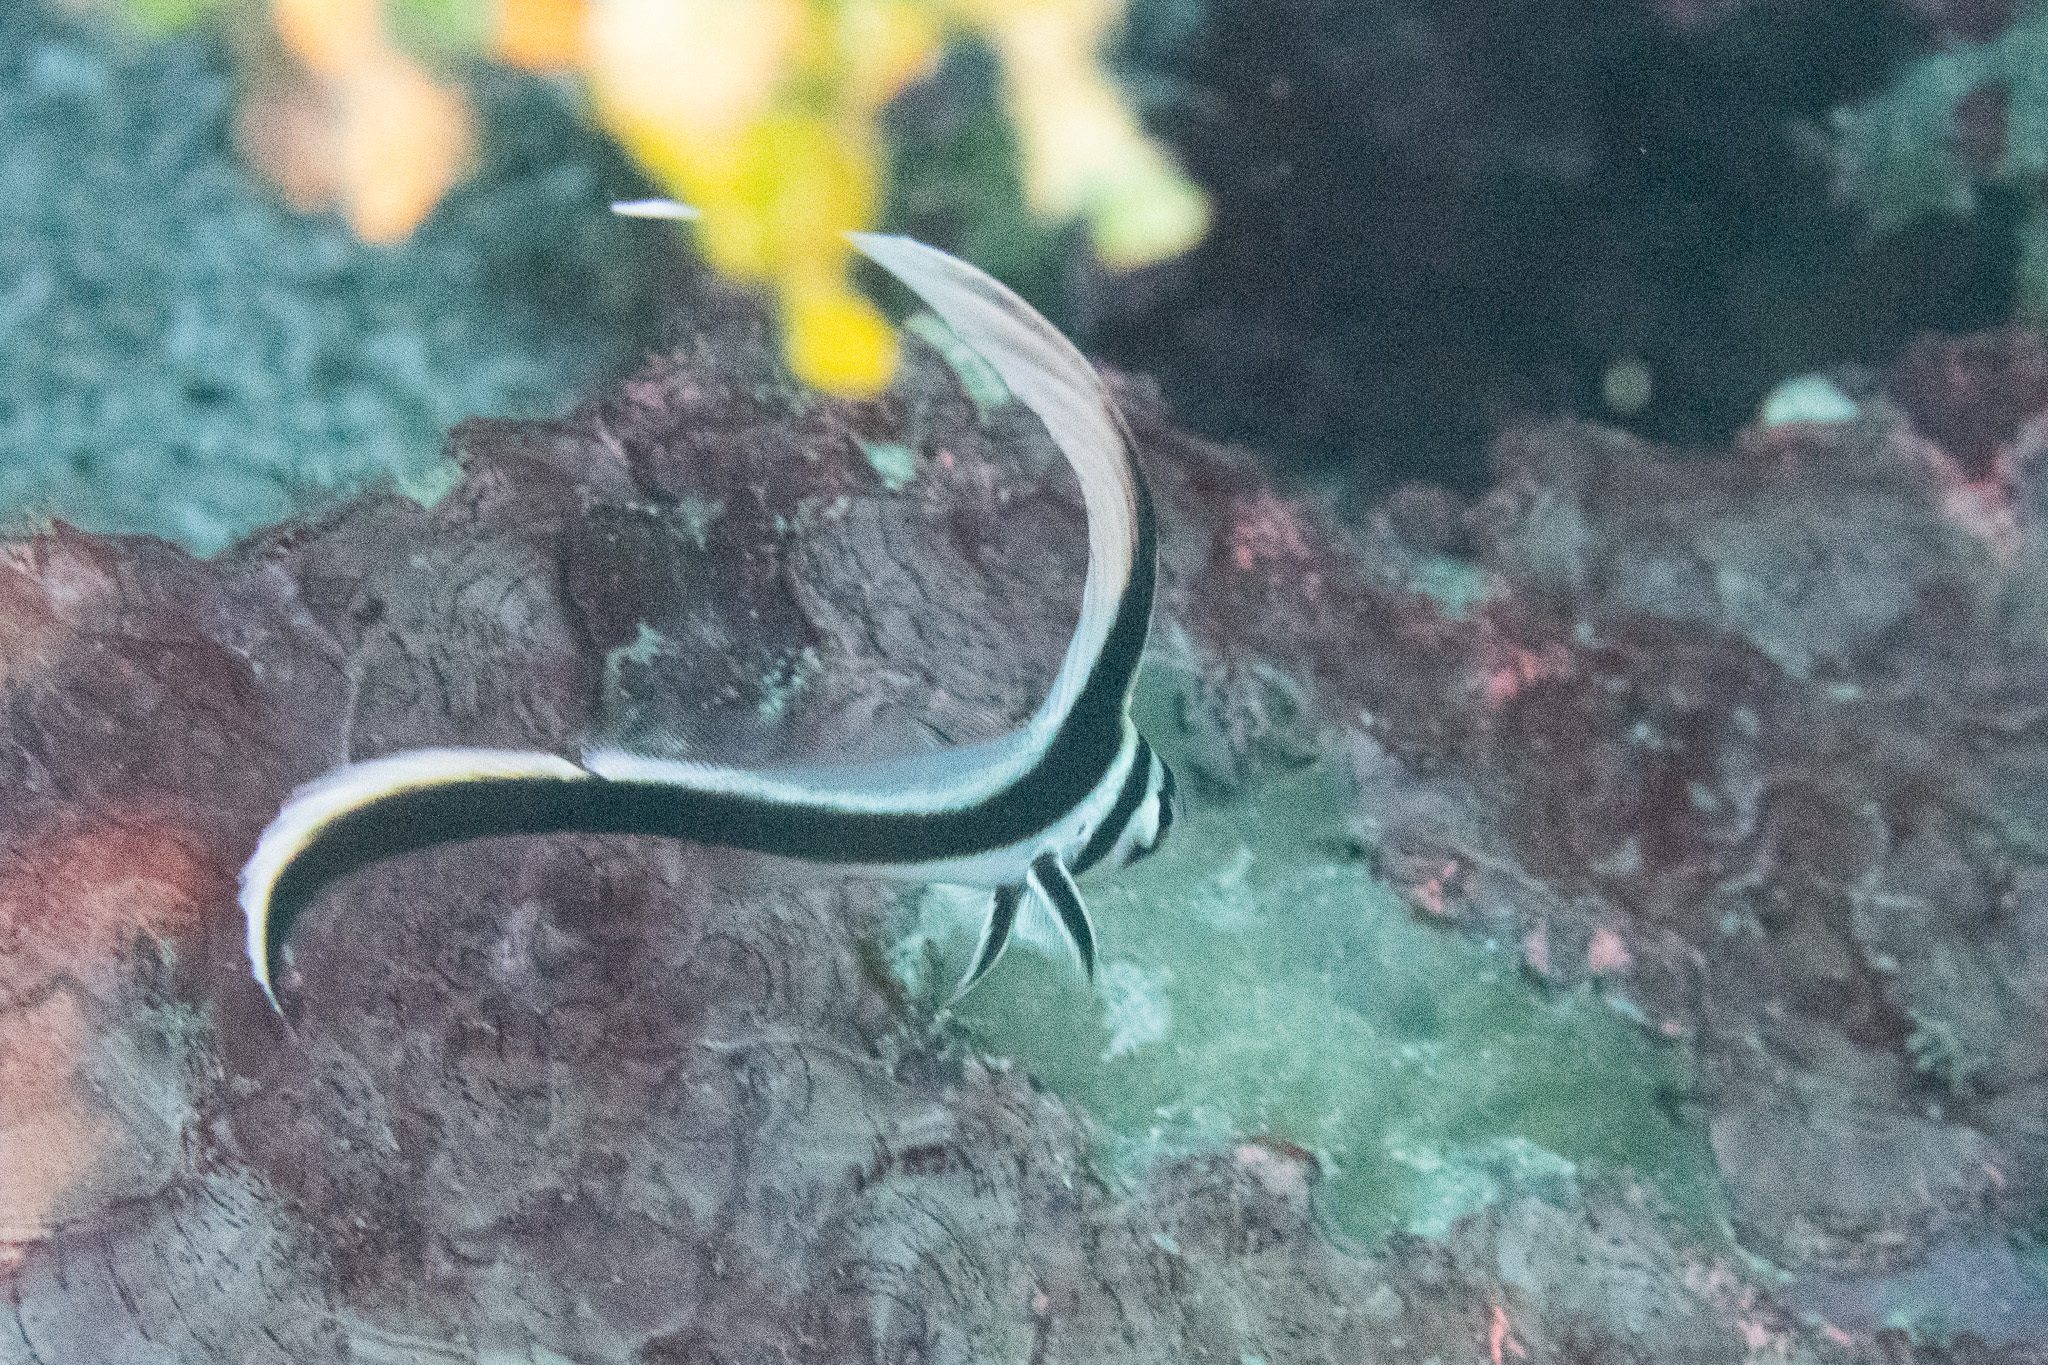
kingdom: Animalia
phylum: Chordata
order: Perciformes
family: Sciaenidae
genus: Equetus
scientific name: Equetus punctatus
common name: Spotted drum
